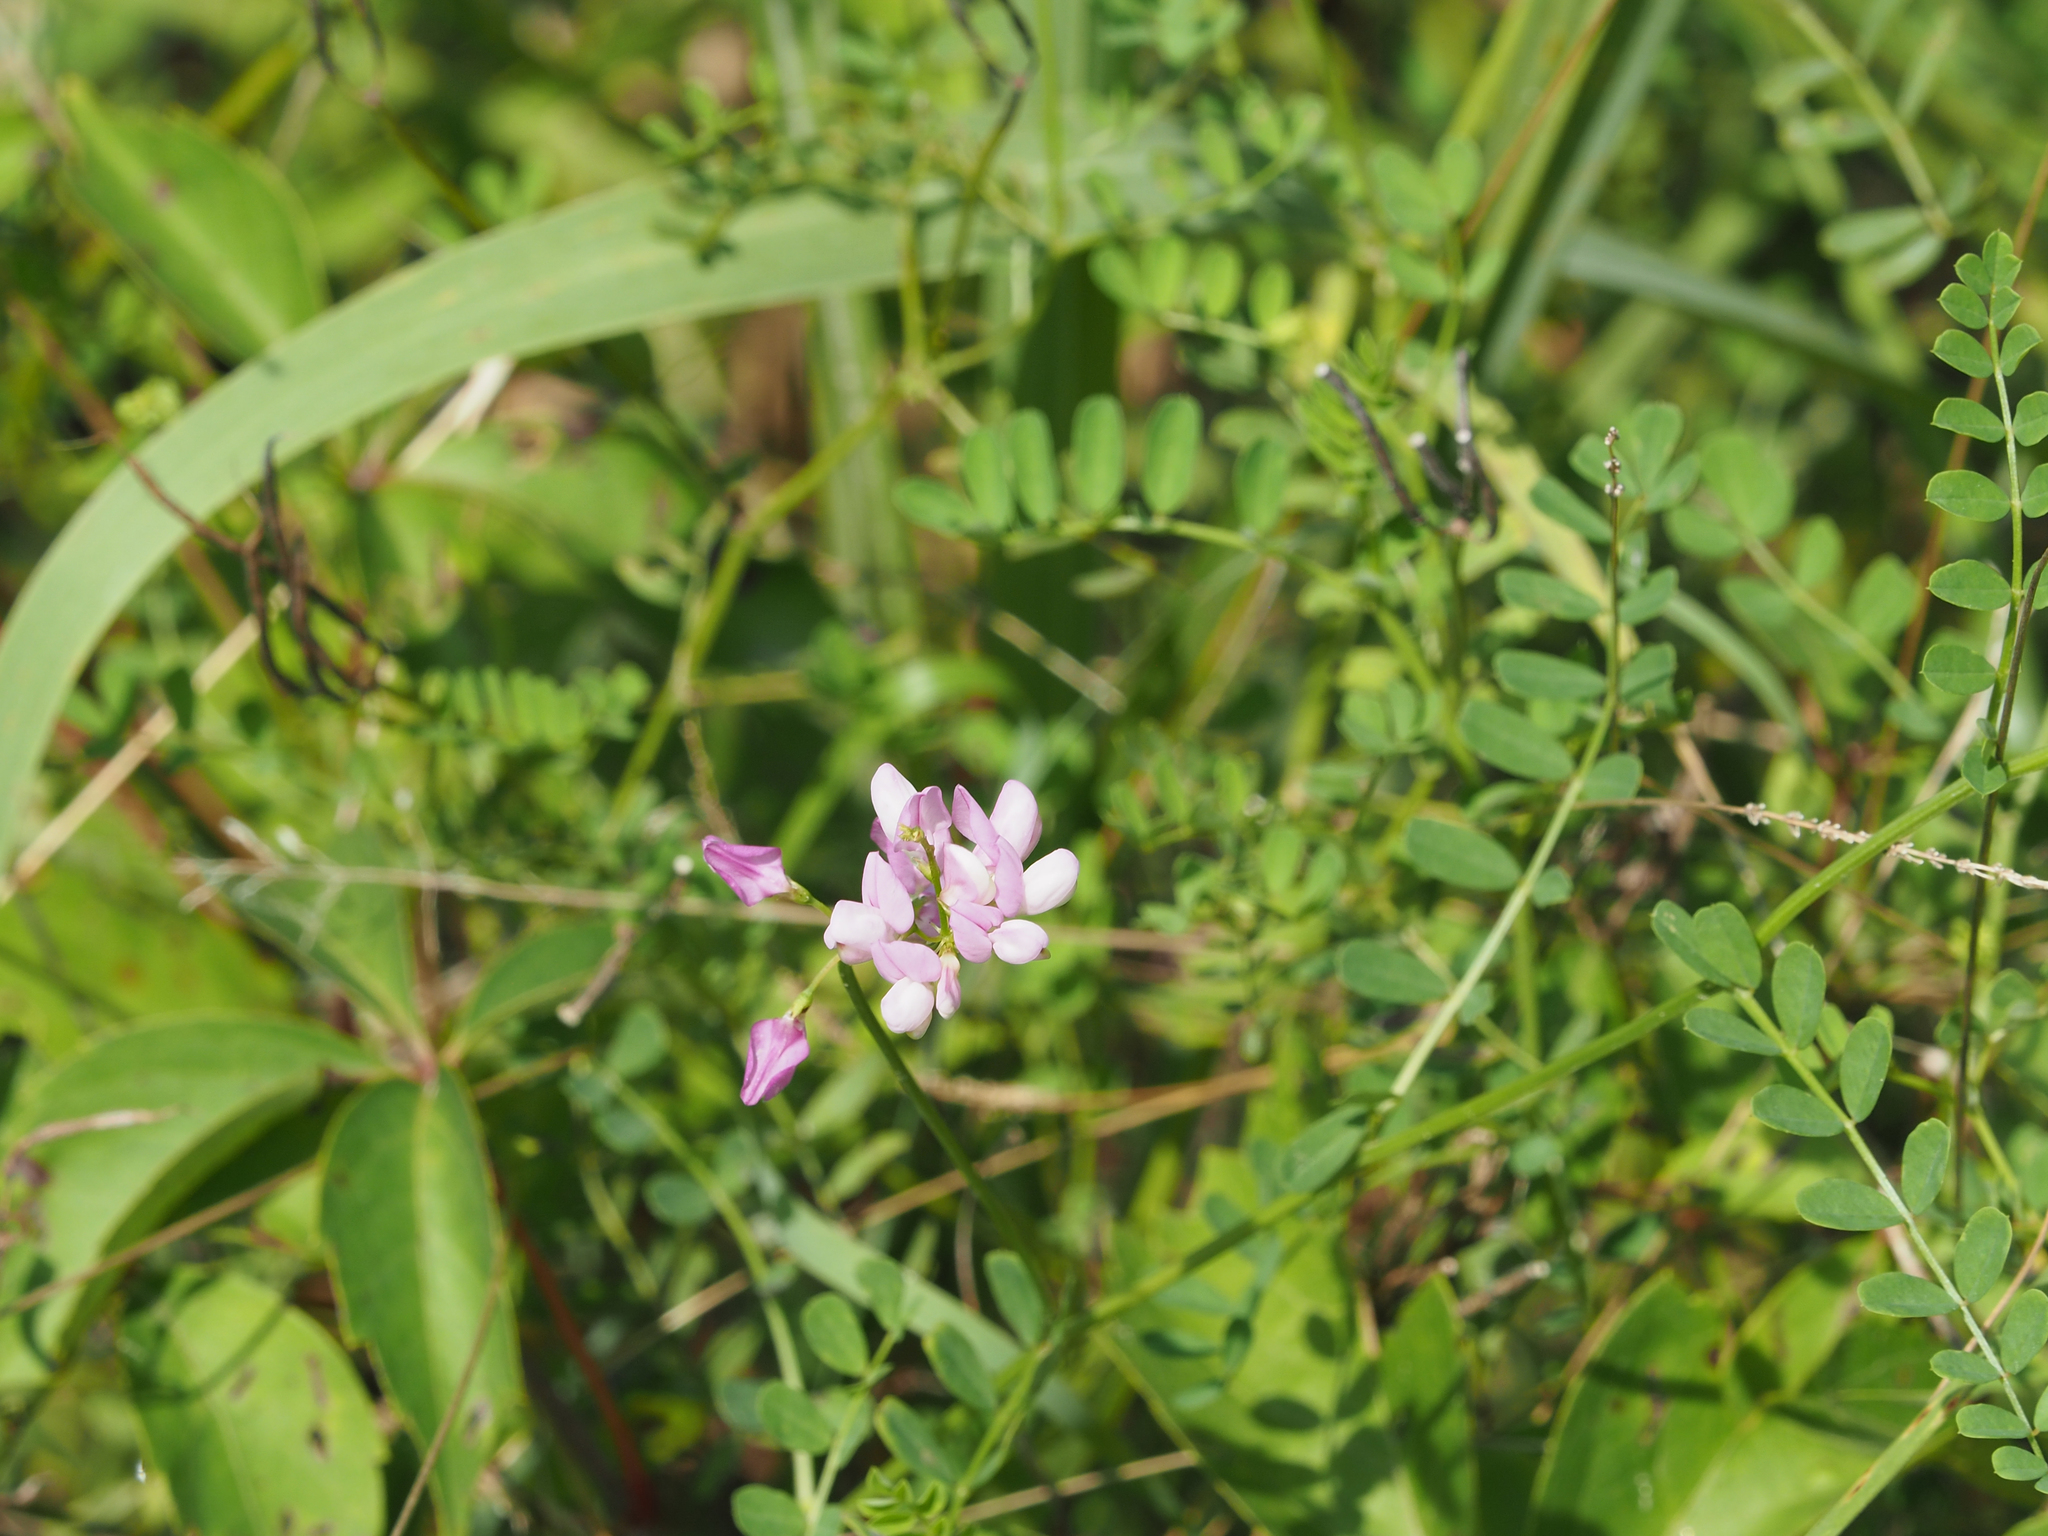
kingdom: Plantae
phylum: Tracheophyta
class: Magnoliopsida
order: Fabales
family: Fabaceae
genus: Coronilla
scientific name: Coronilla varia
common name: Crownvetch
